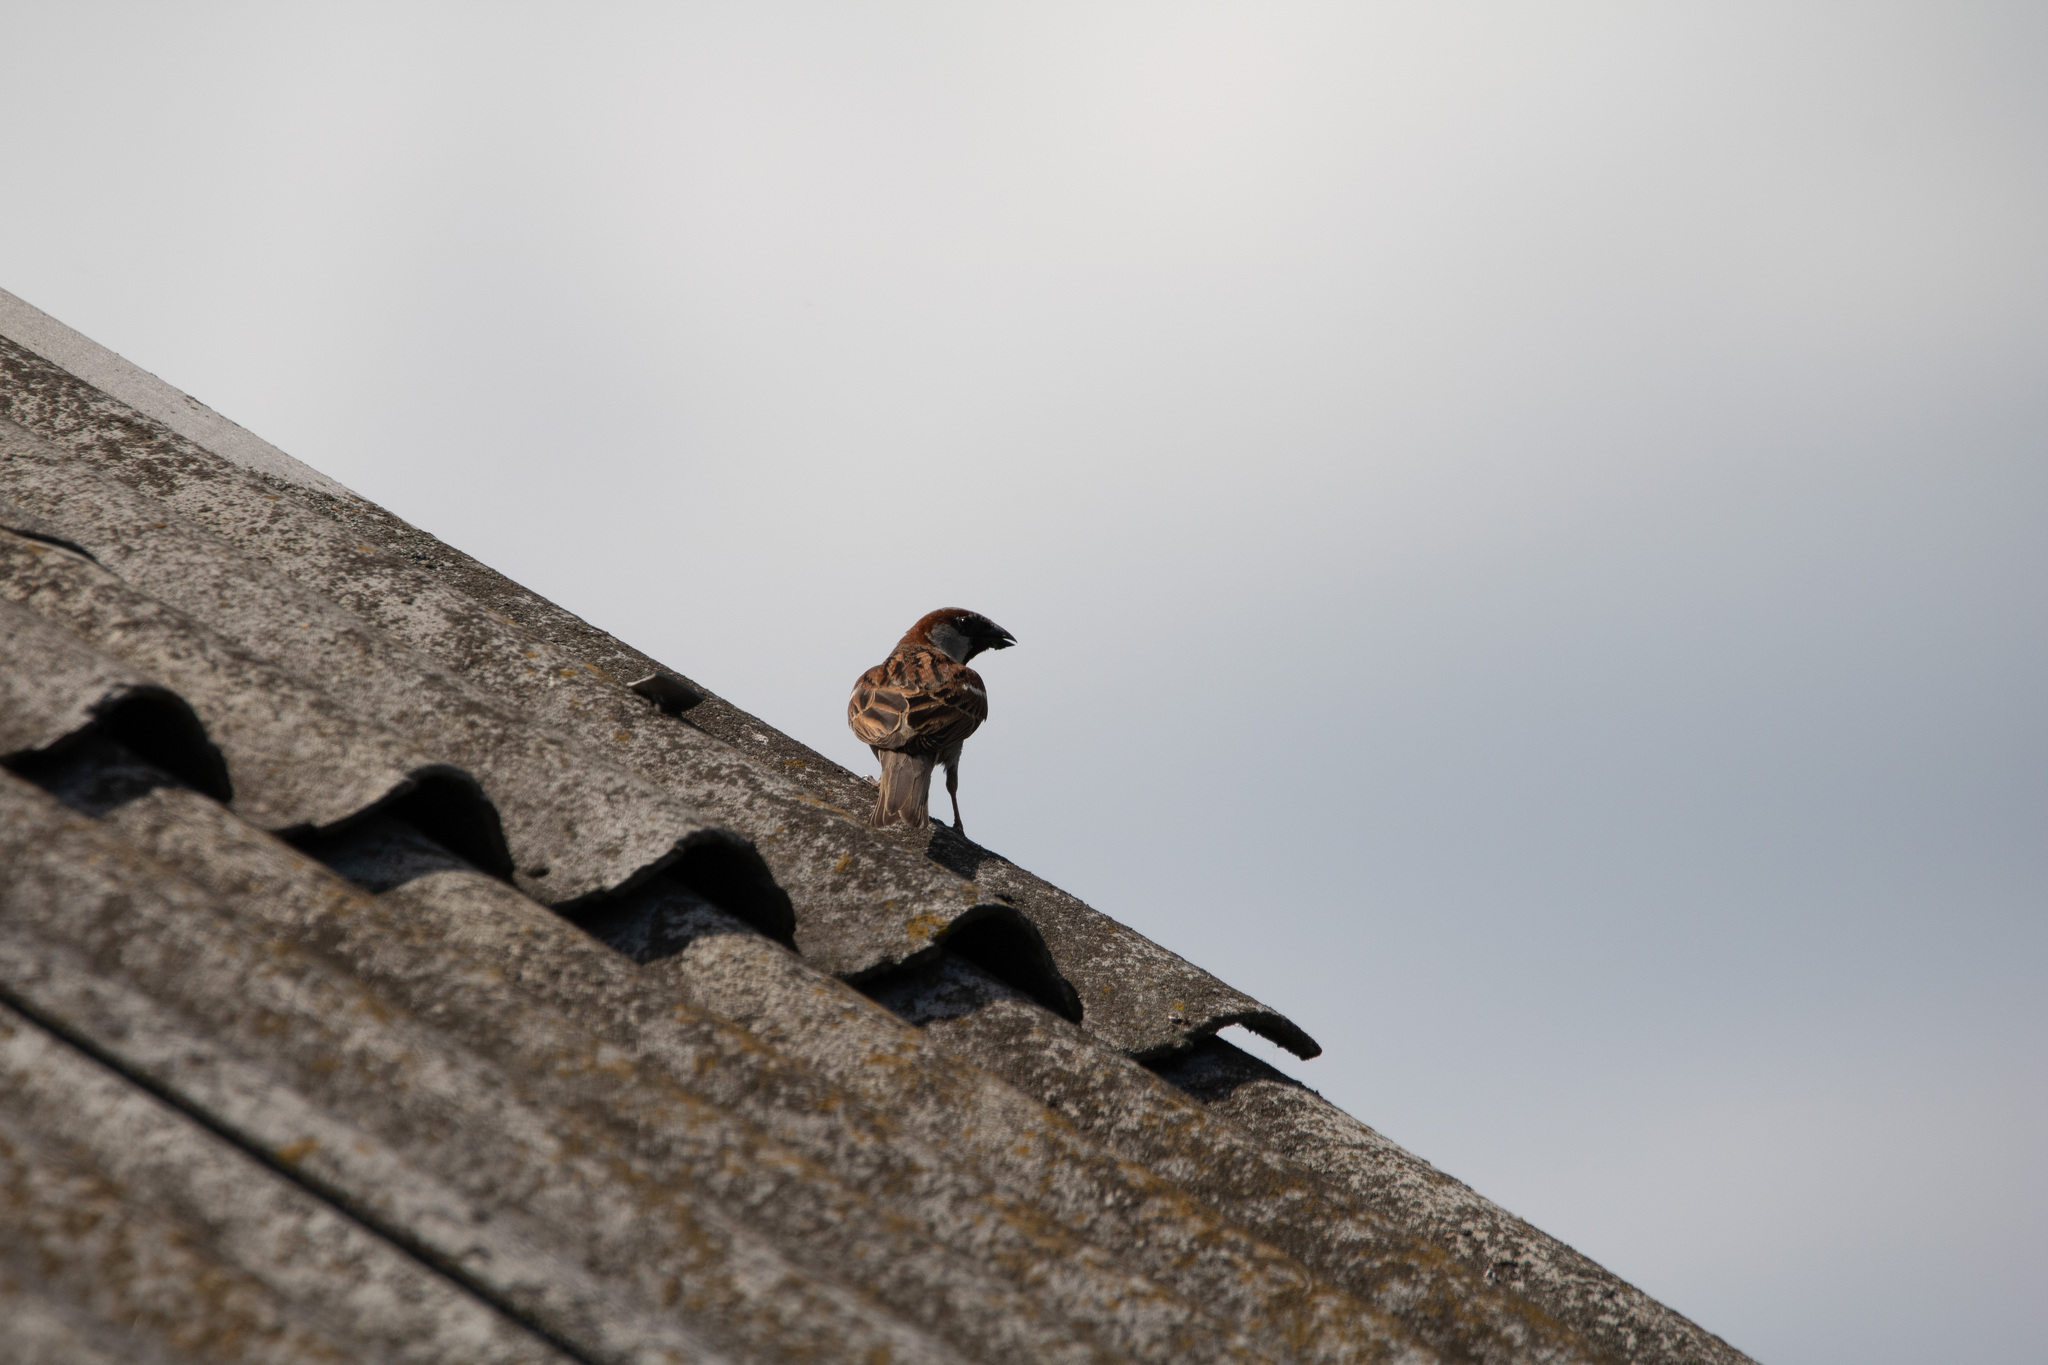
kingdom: Animalia
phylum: Chordata
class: Aves
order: Passeriformes
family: Passeridae
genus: Passer
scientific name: Passer domesticus
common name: House sparrow
